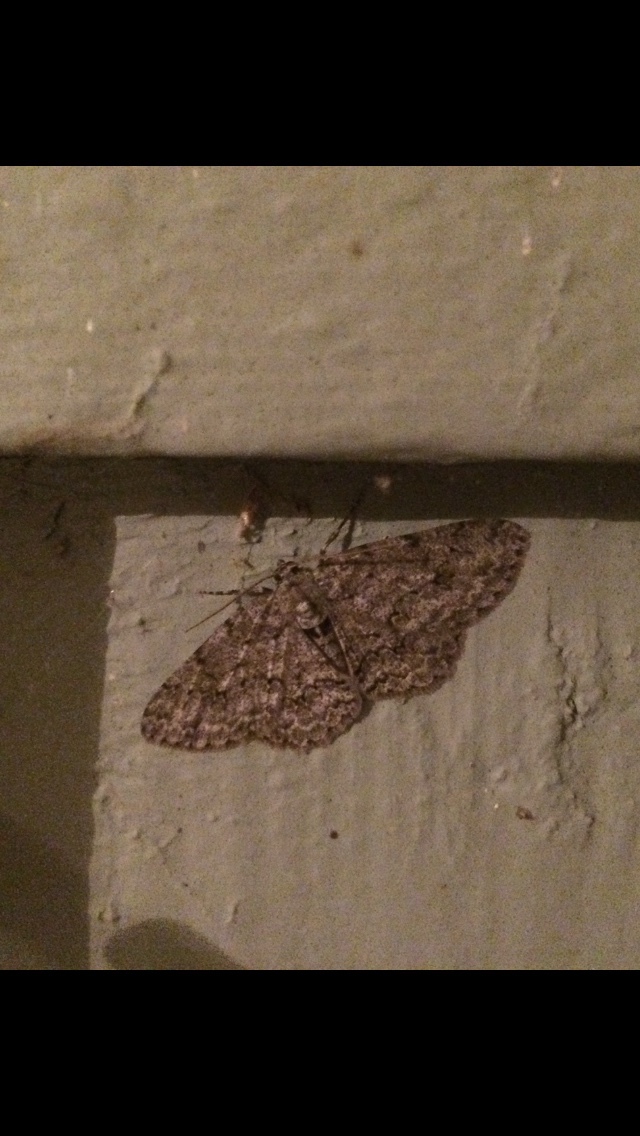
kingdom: Animalia
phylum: Arthropoda
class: Insecta
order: Lepidoptera
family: Geometridae
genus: Ectropis
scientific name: Ectropis crepuscularia
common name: Engrailed
